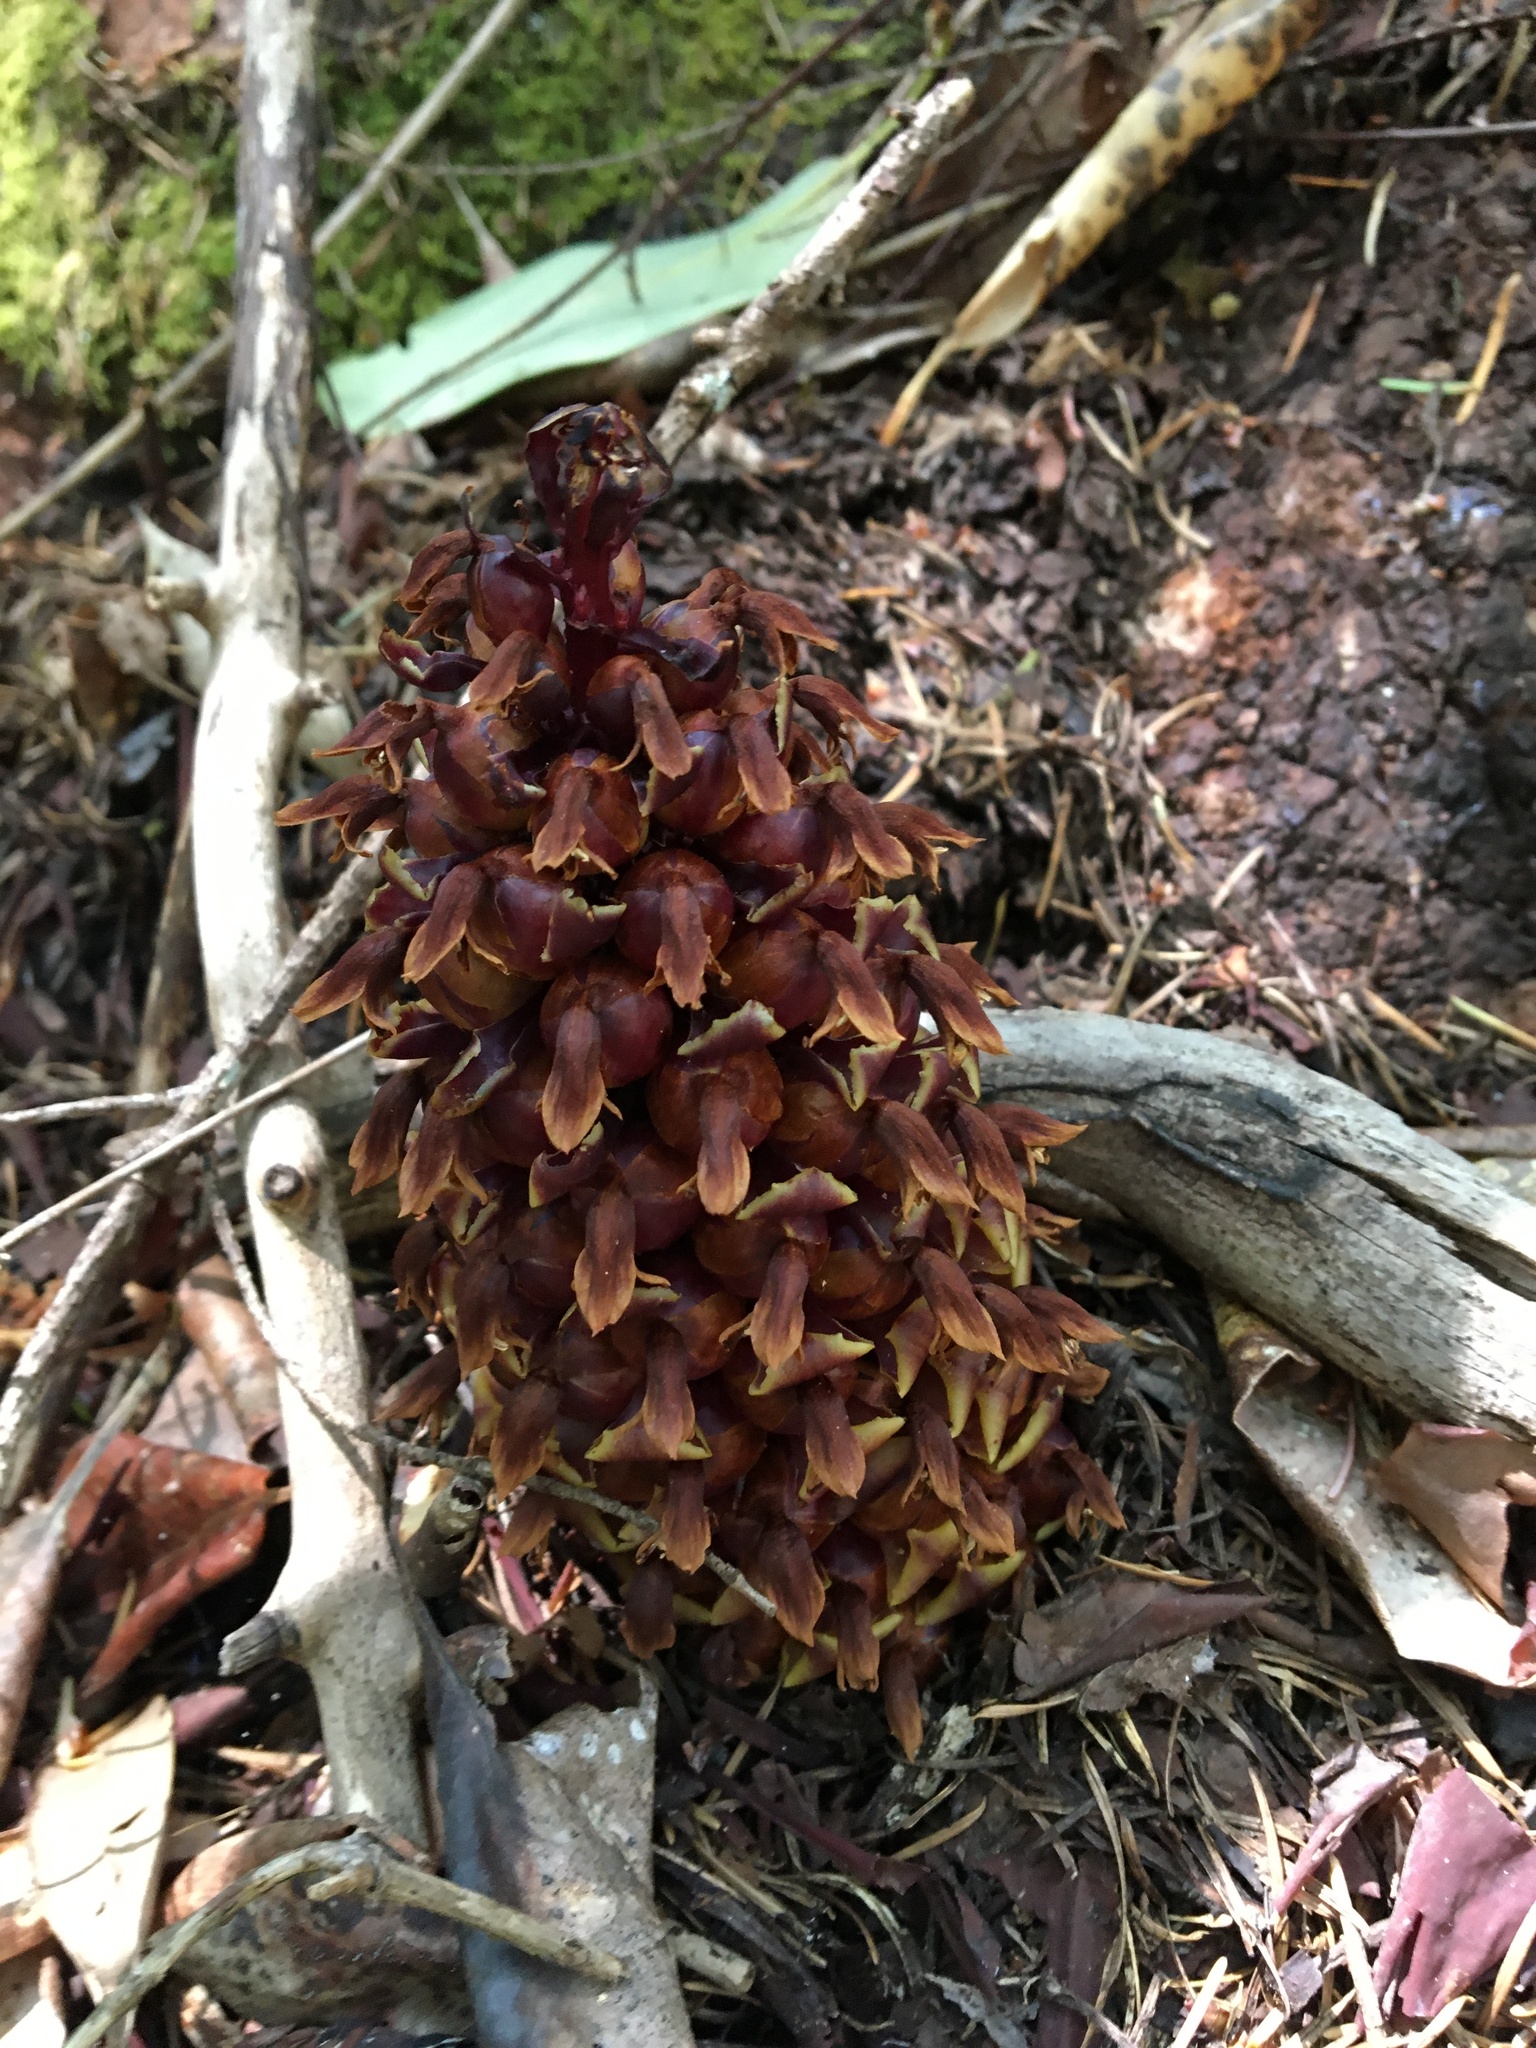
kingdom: Plantae
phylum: Tracheophyta
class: Magnoliopsida
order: Lamiales
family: Orobanchaceae
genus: Kopsiopsis
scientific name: Kopsiopsis strobilacea
